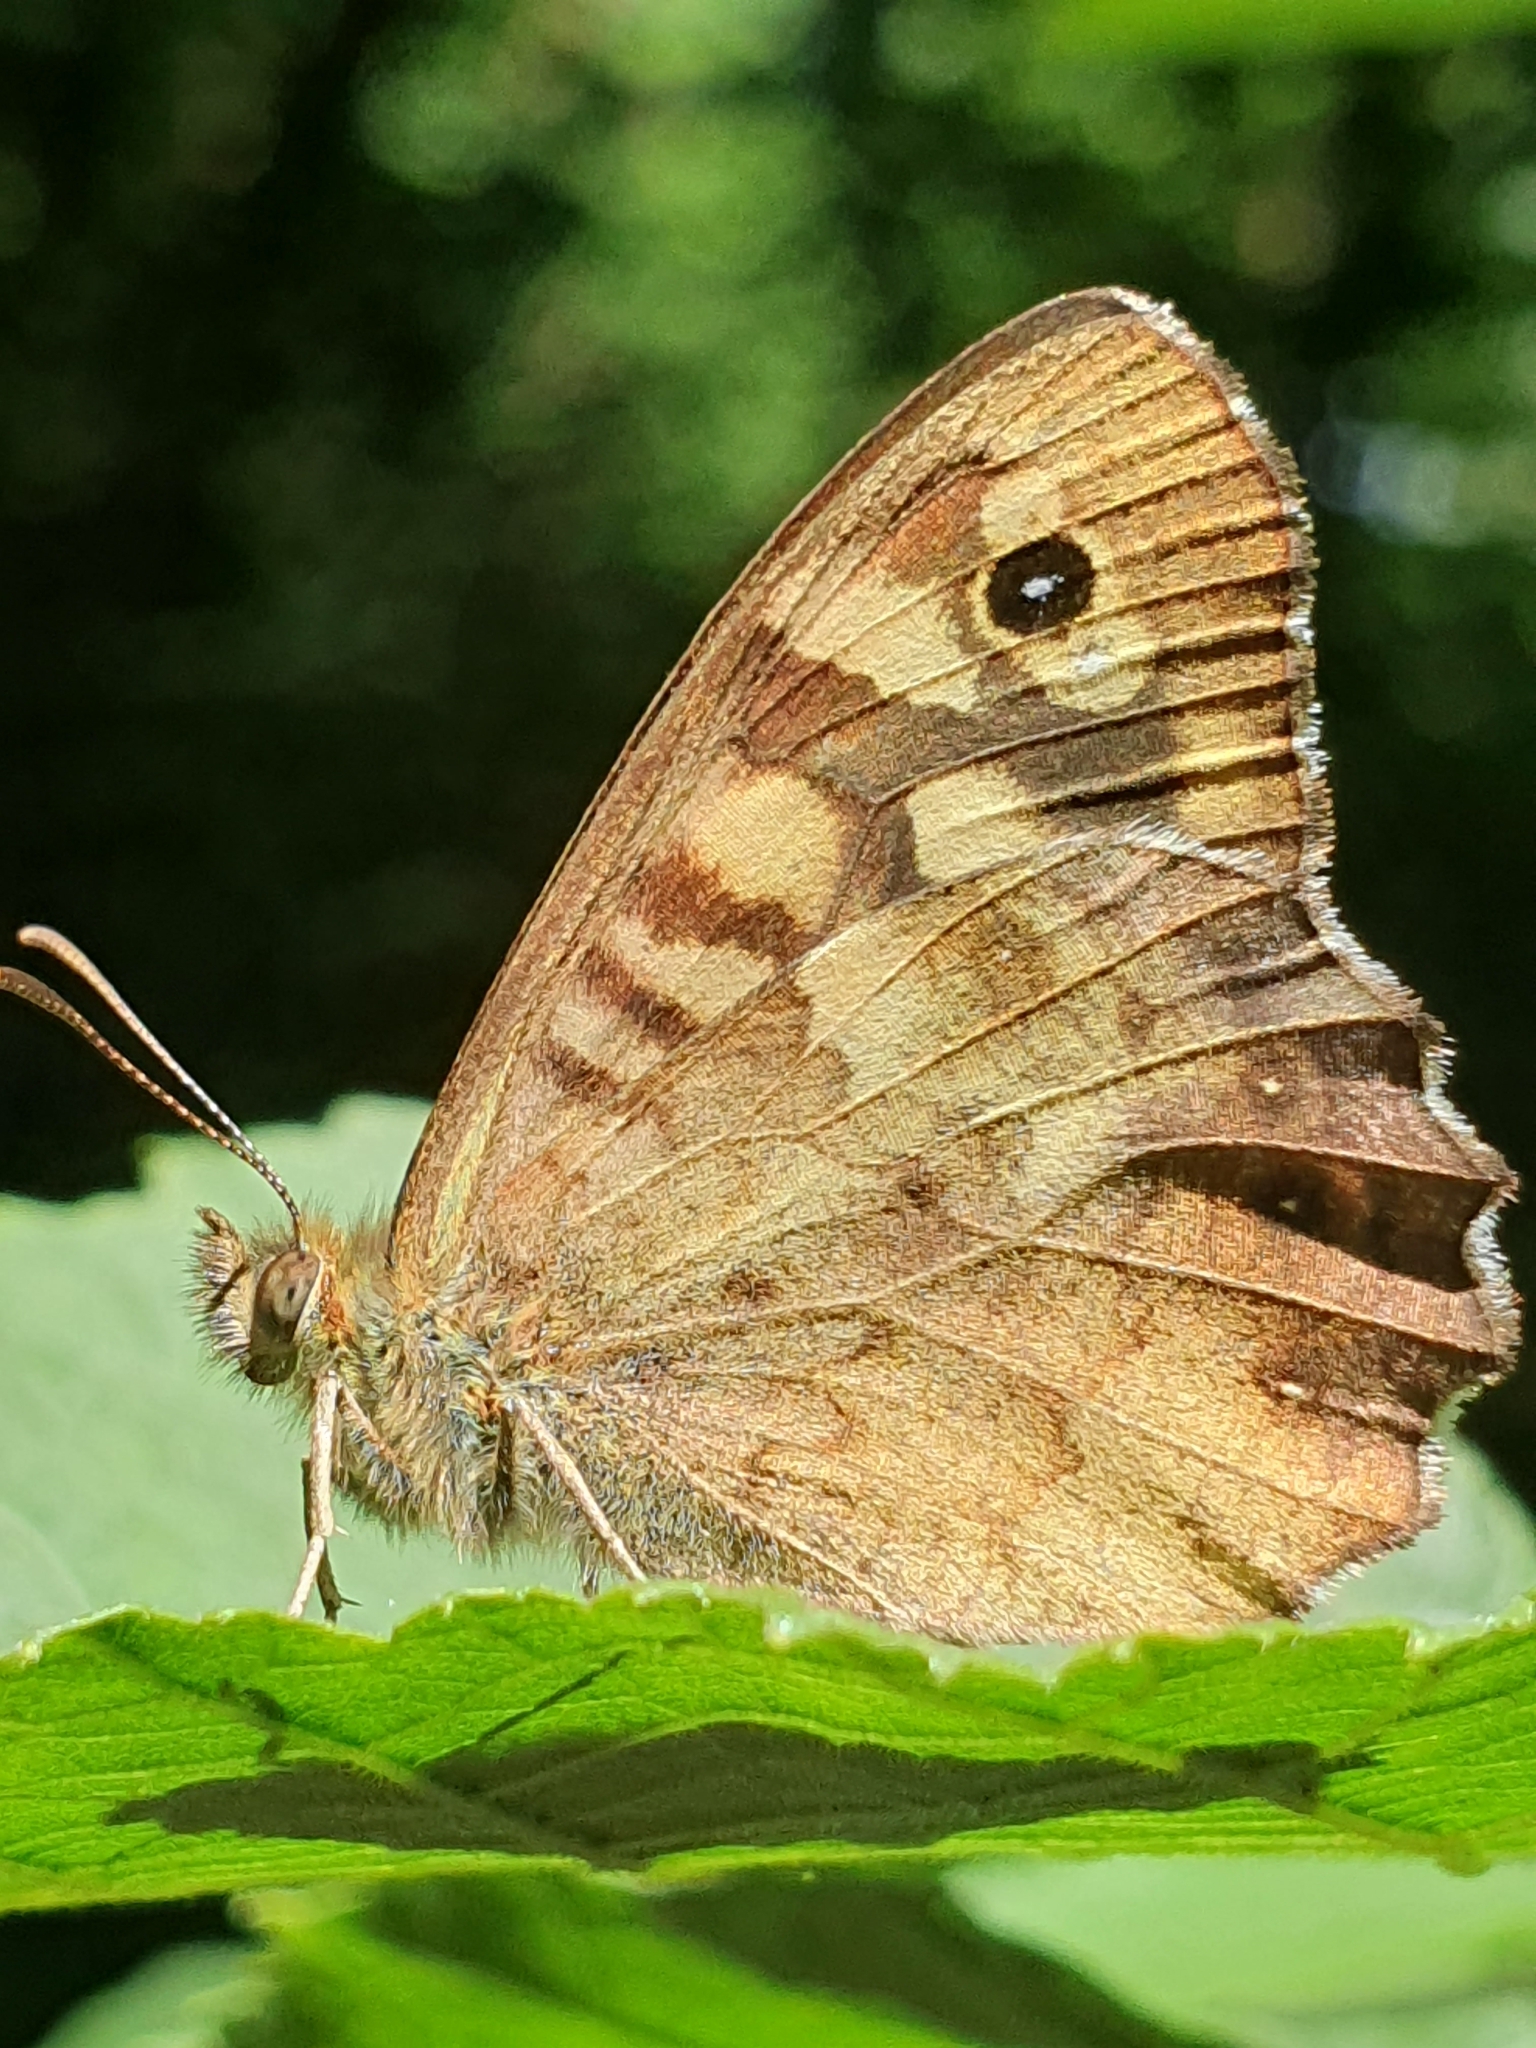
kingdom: Animalia
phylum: Arthropoda
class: Insecta
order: Lepidoptera
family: Nymphalidae
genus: Pararge
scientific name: Pararge aegeria
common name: Speckled wood
